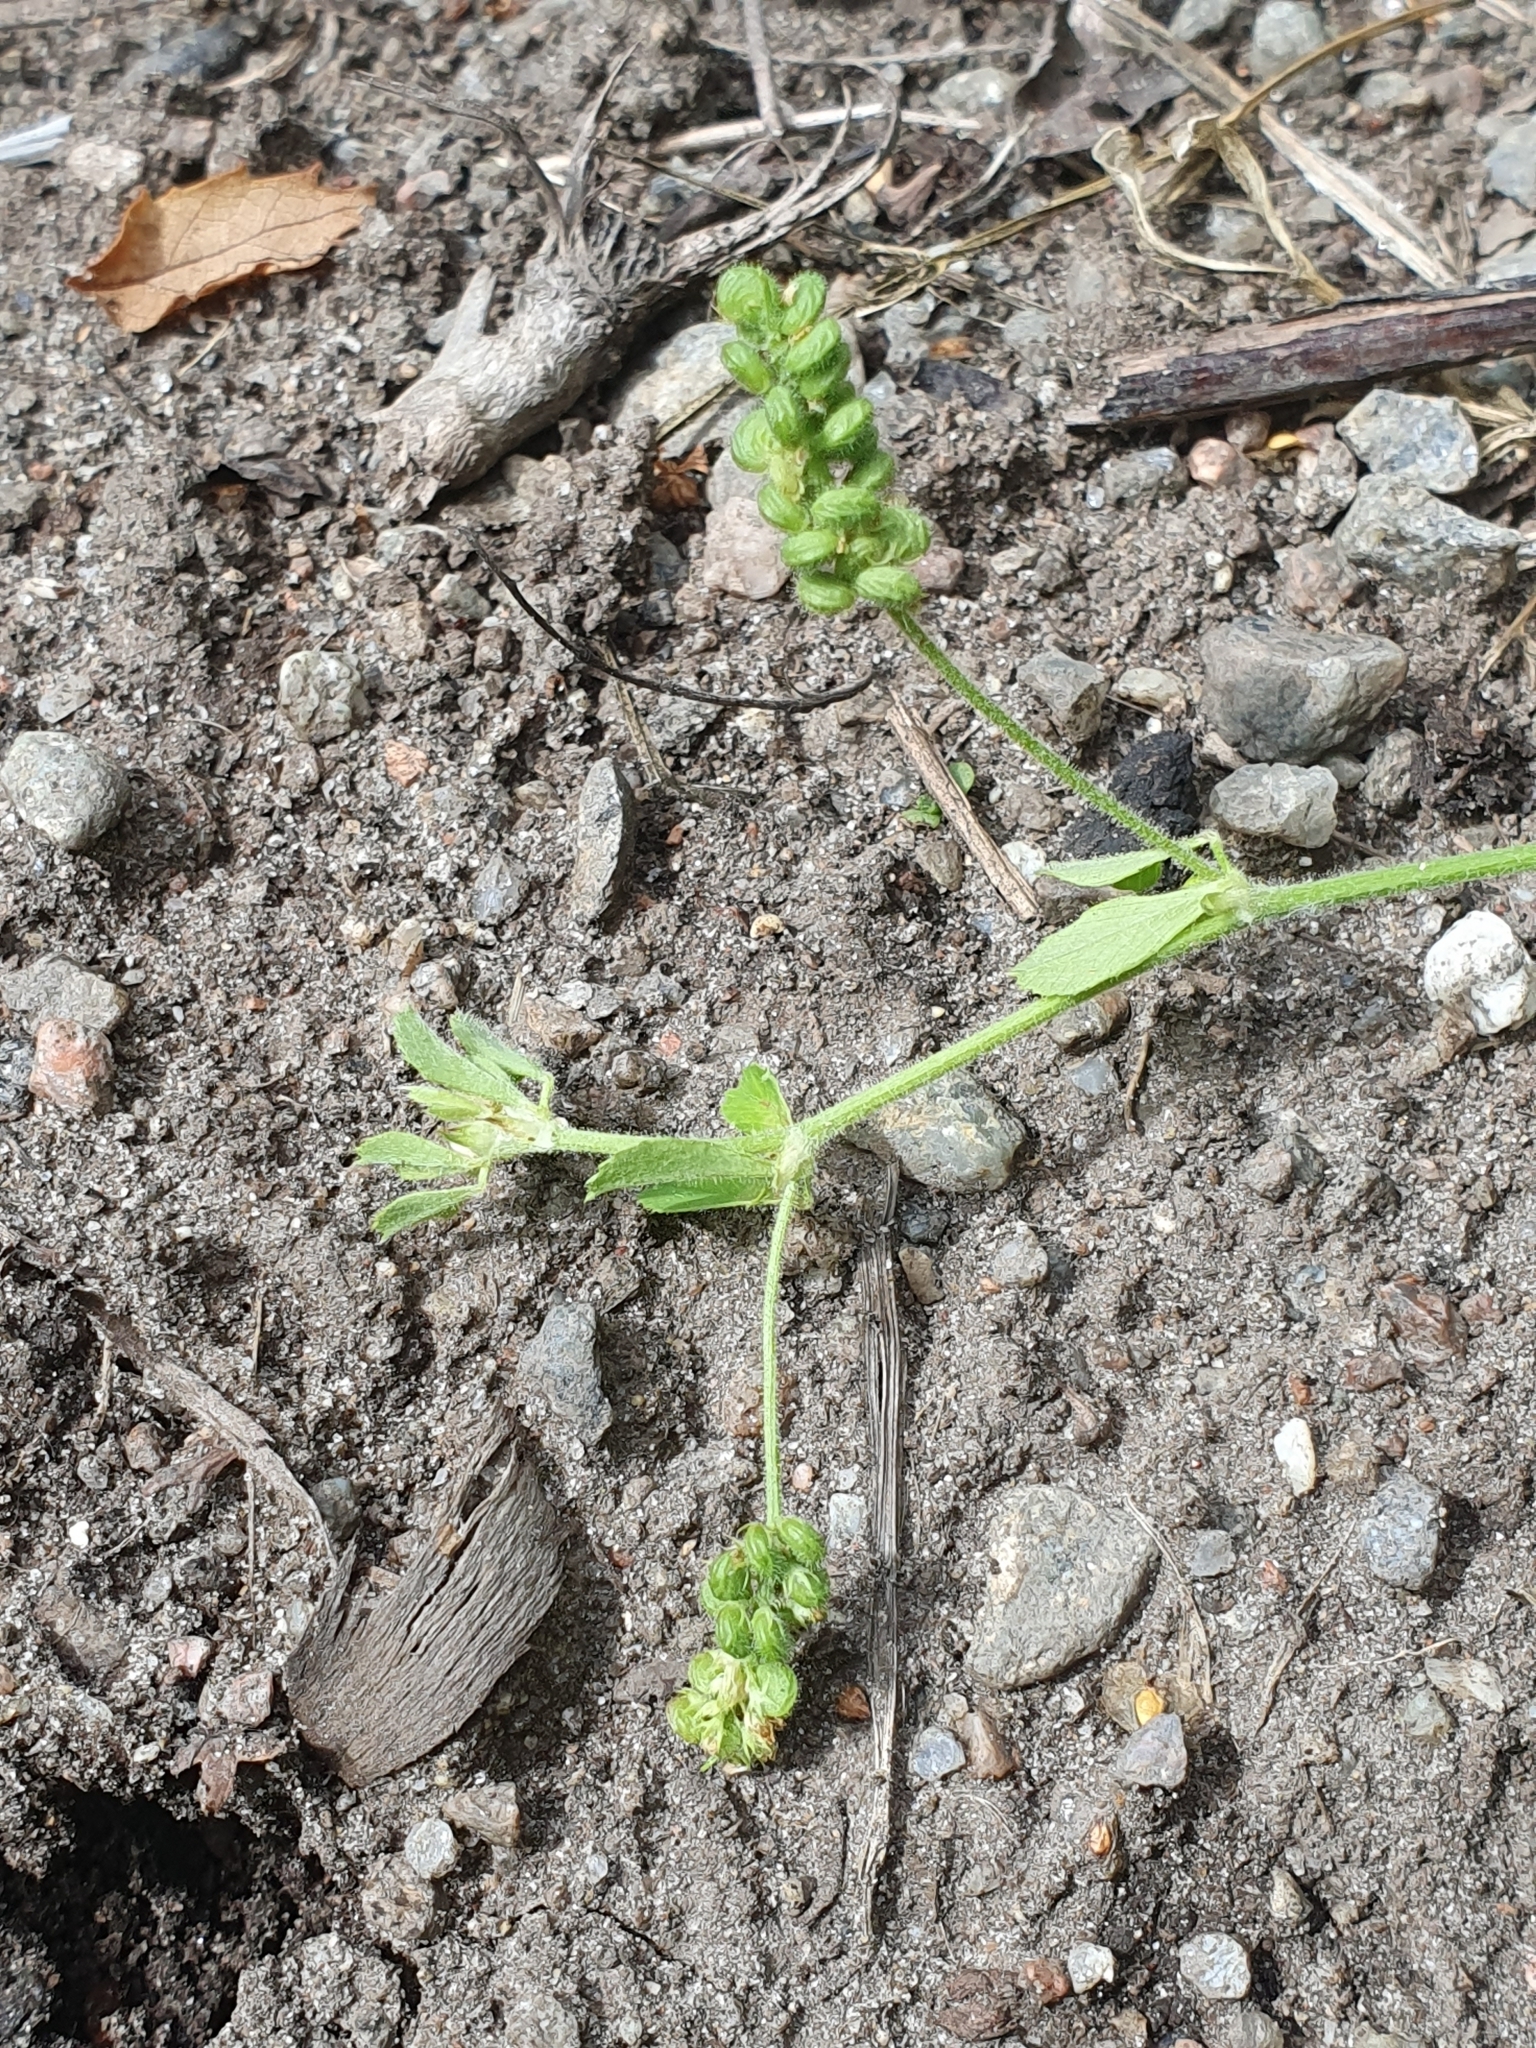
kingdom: Plantae
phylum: Tracheophyta
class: Magnoliopsida
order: Fabales
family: Fabaceae
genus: Medicago
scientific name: Medicago lupulina
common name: Black medick
